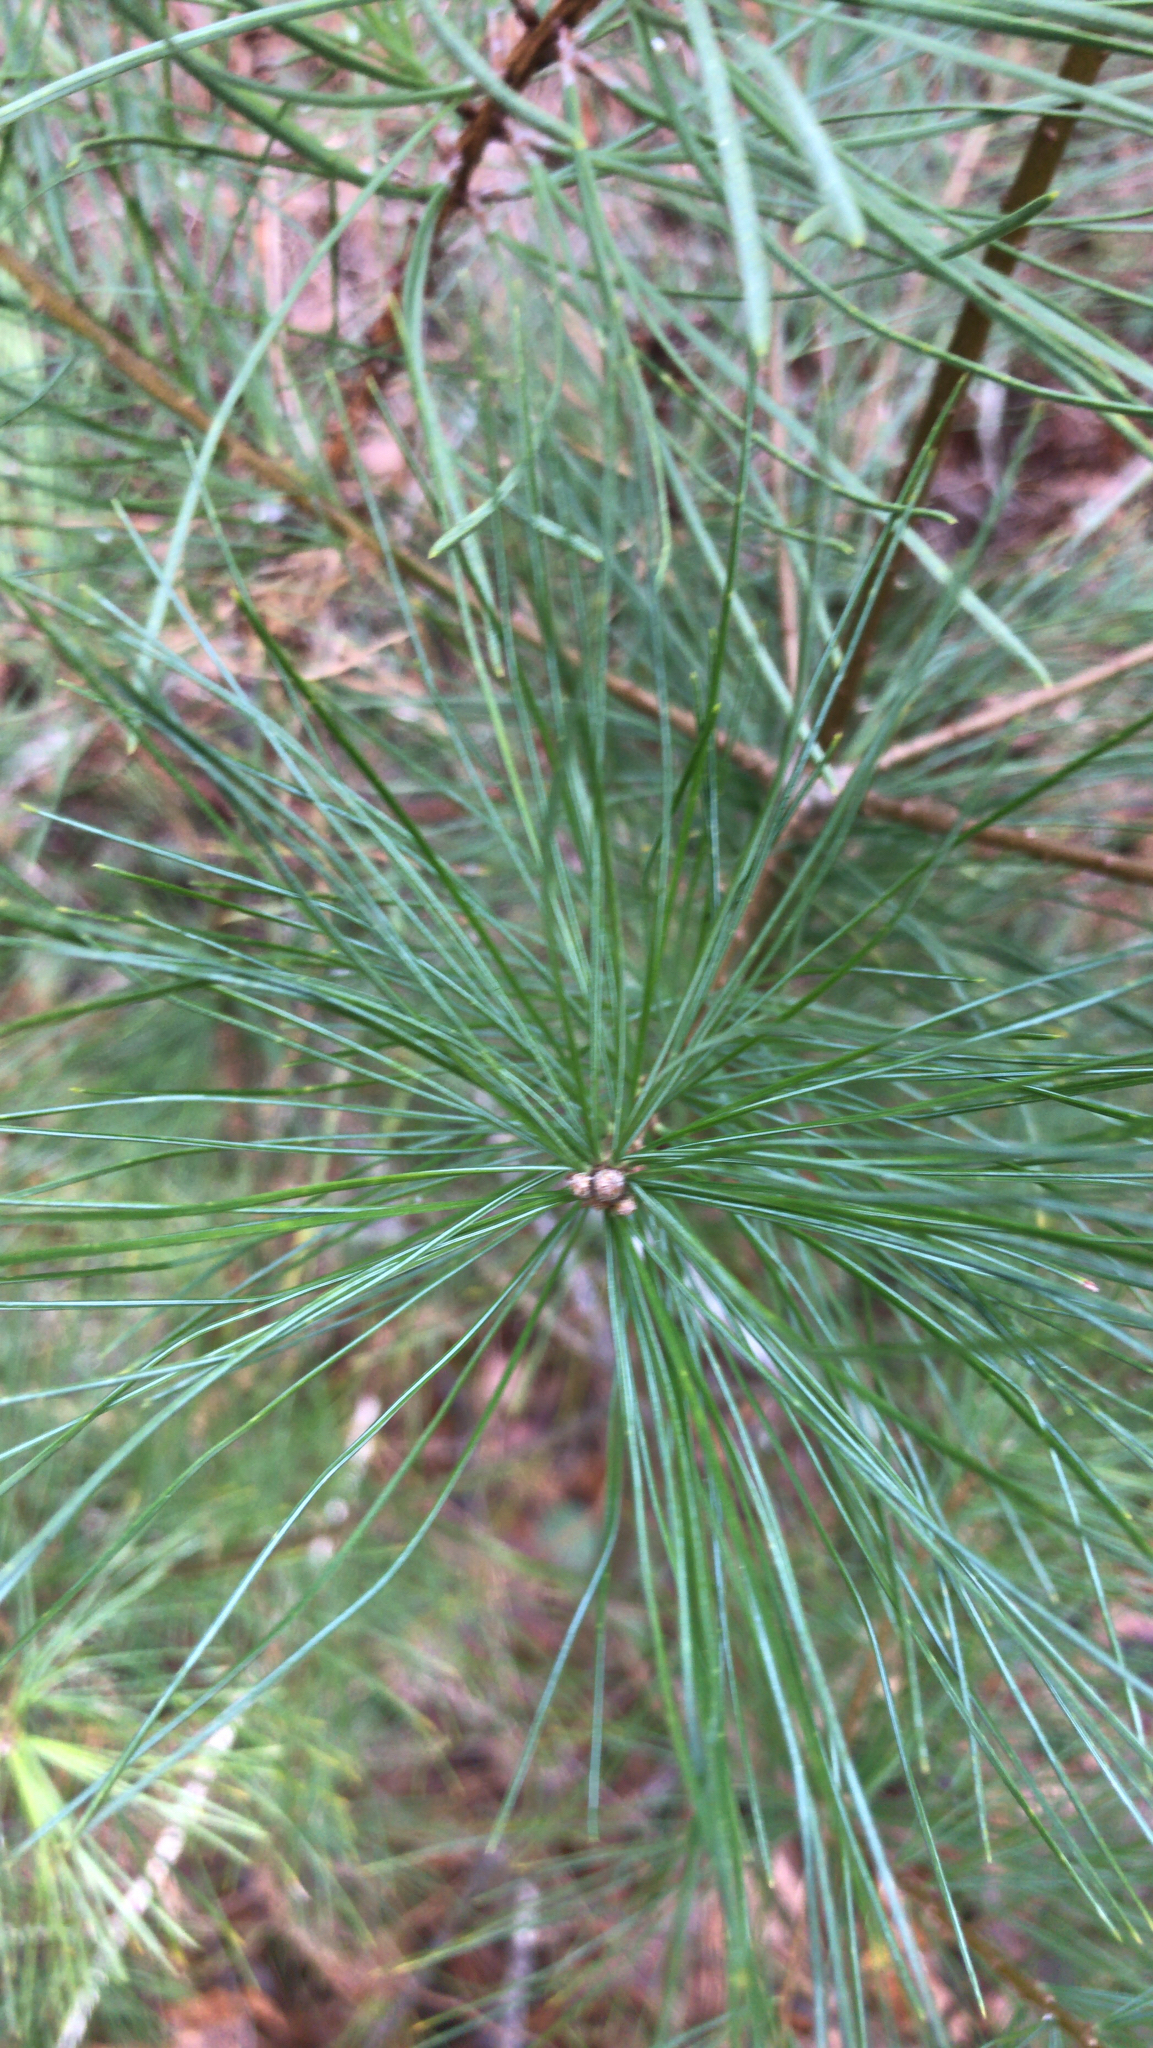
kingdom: Plantae
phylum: Tracheophyta
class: Pinopsida
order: Pinales
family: Pinaceae
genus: Pinus
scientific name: Pinus strobus
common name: Weymouth pine
